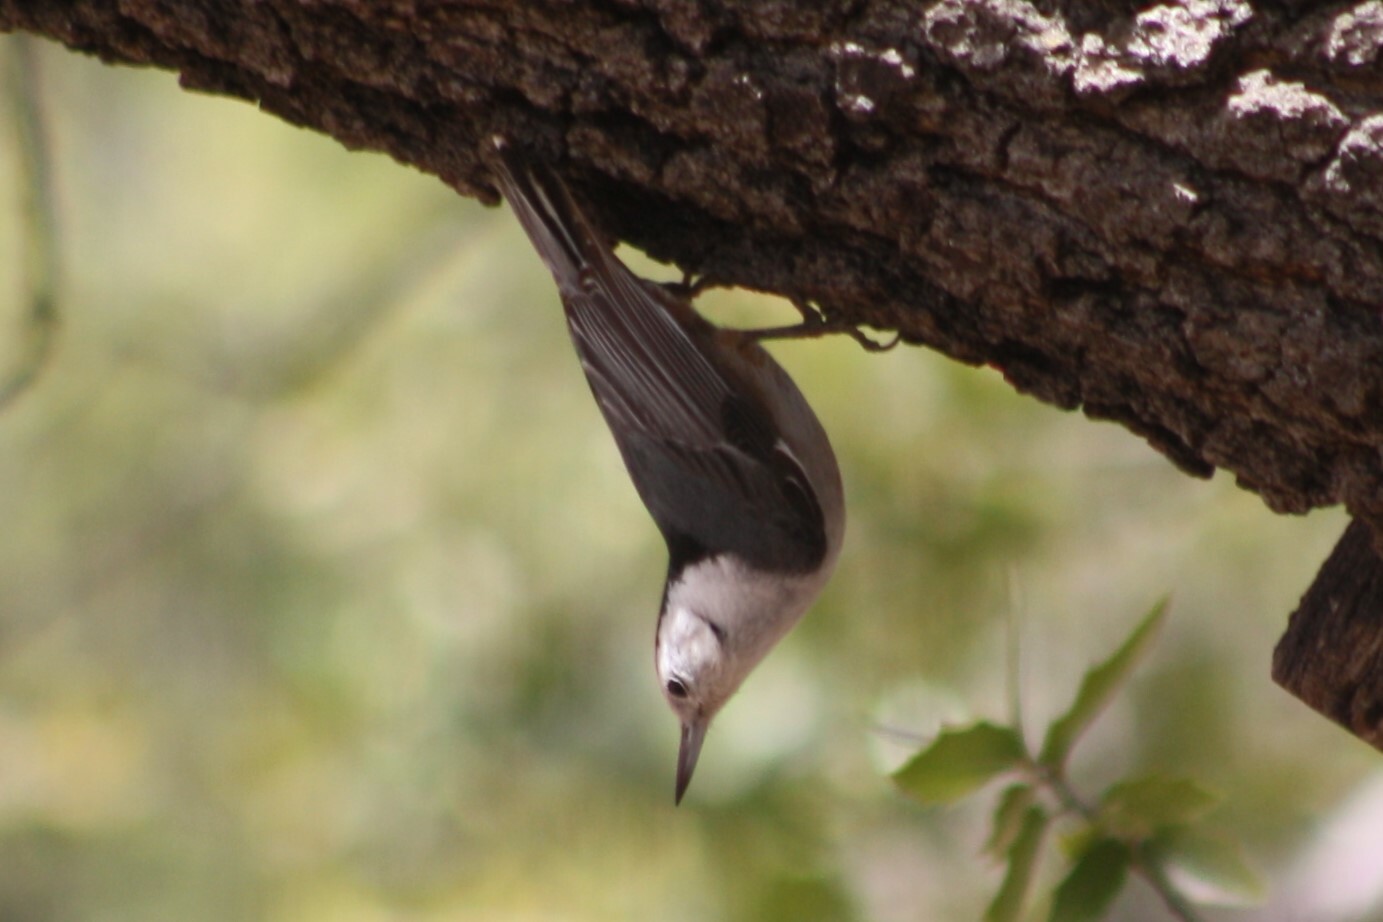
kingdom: Animalia
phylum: Chordata
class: Aves
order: Passeriformes
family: Sittidae
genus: Sitta
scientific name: Sitta carolinensis
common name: White-breasted nuthatch
